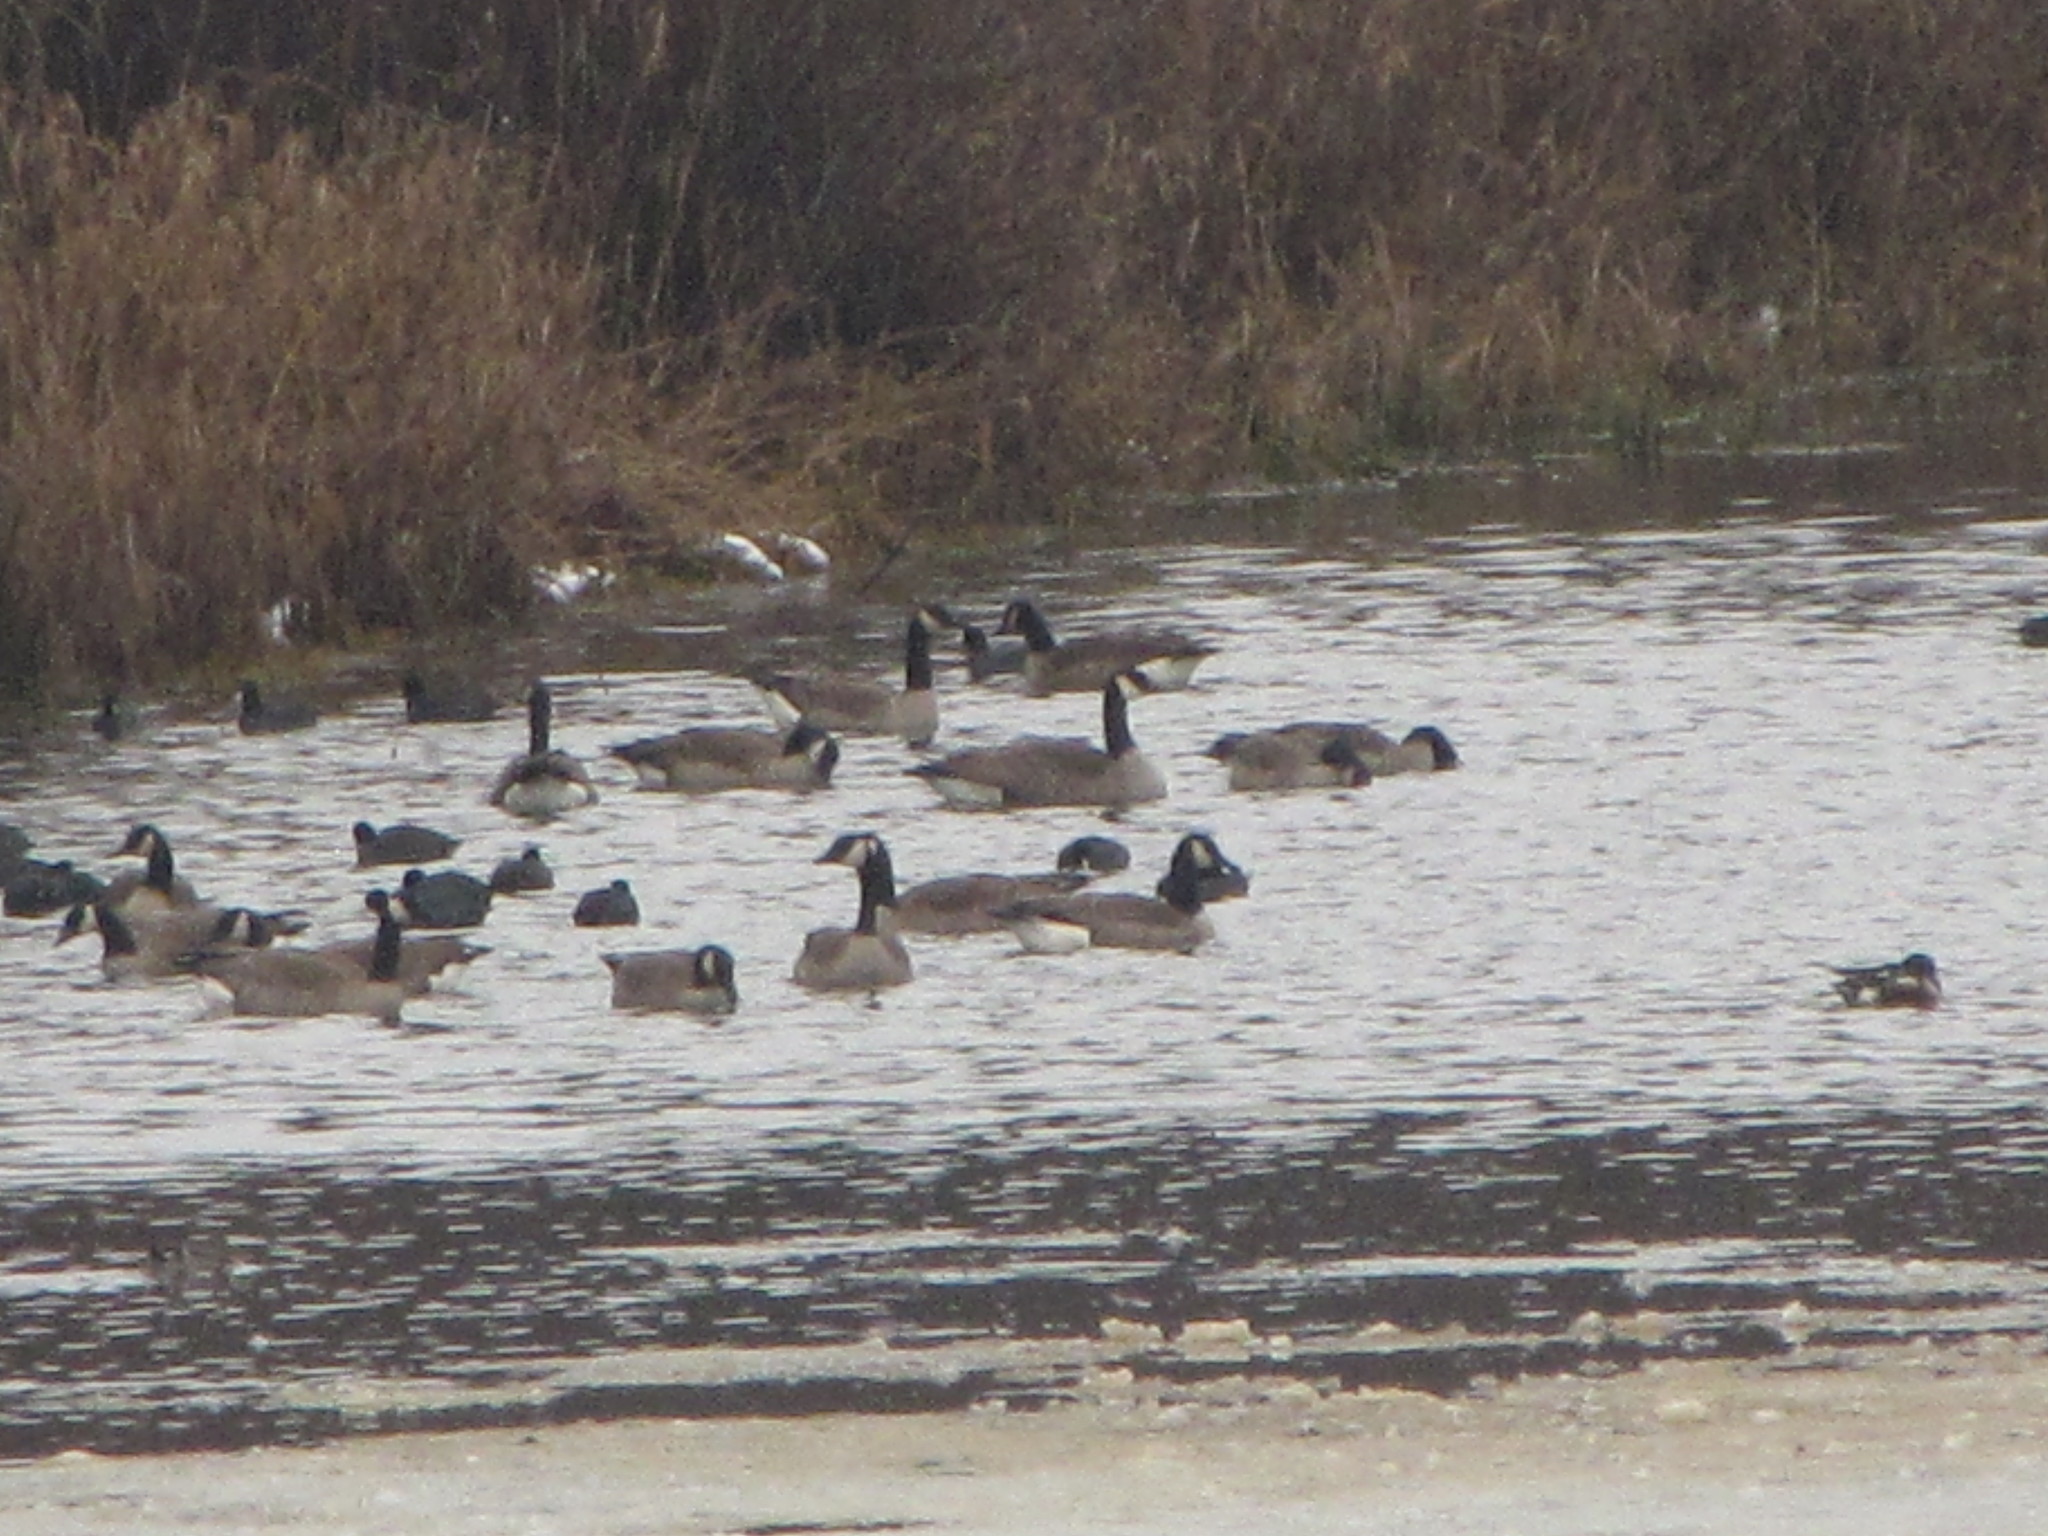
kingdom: Animalia
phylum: Chordata
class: Aves
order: Anseriformes
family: Anatidae
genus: Branta
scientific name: Branta canadensis
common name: Canada goose
